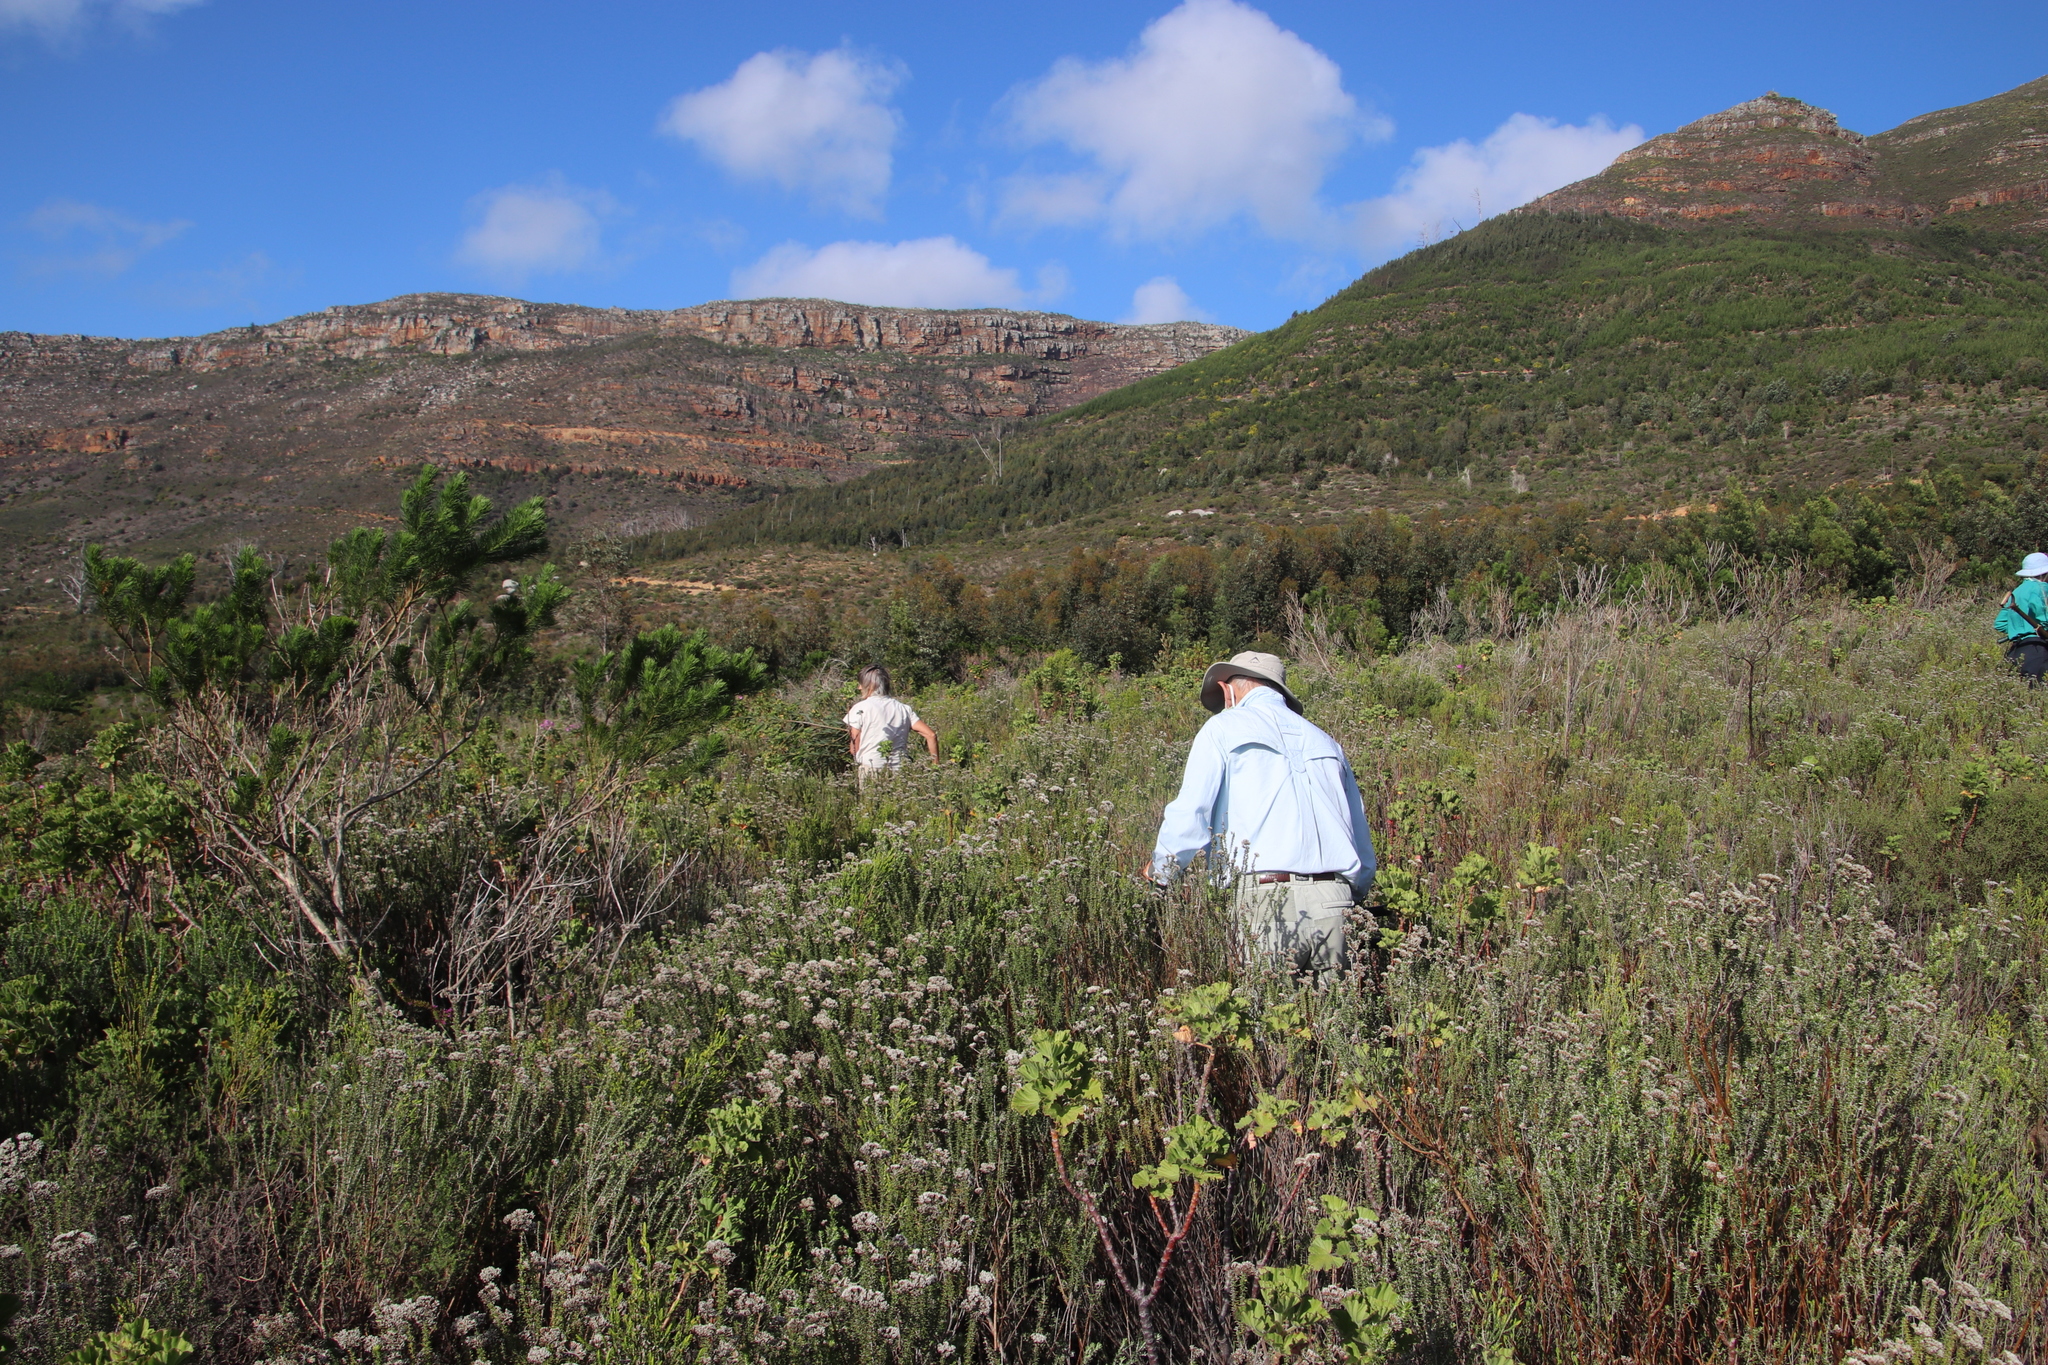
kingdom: Plantae
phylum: Tracheophyta
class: Magnoliopsida
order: Asterales
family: Asteraceae
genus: Metalasia
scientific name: Metalasia densa
